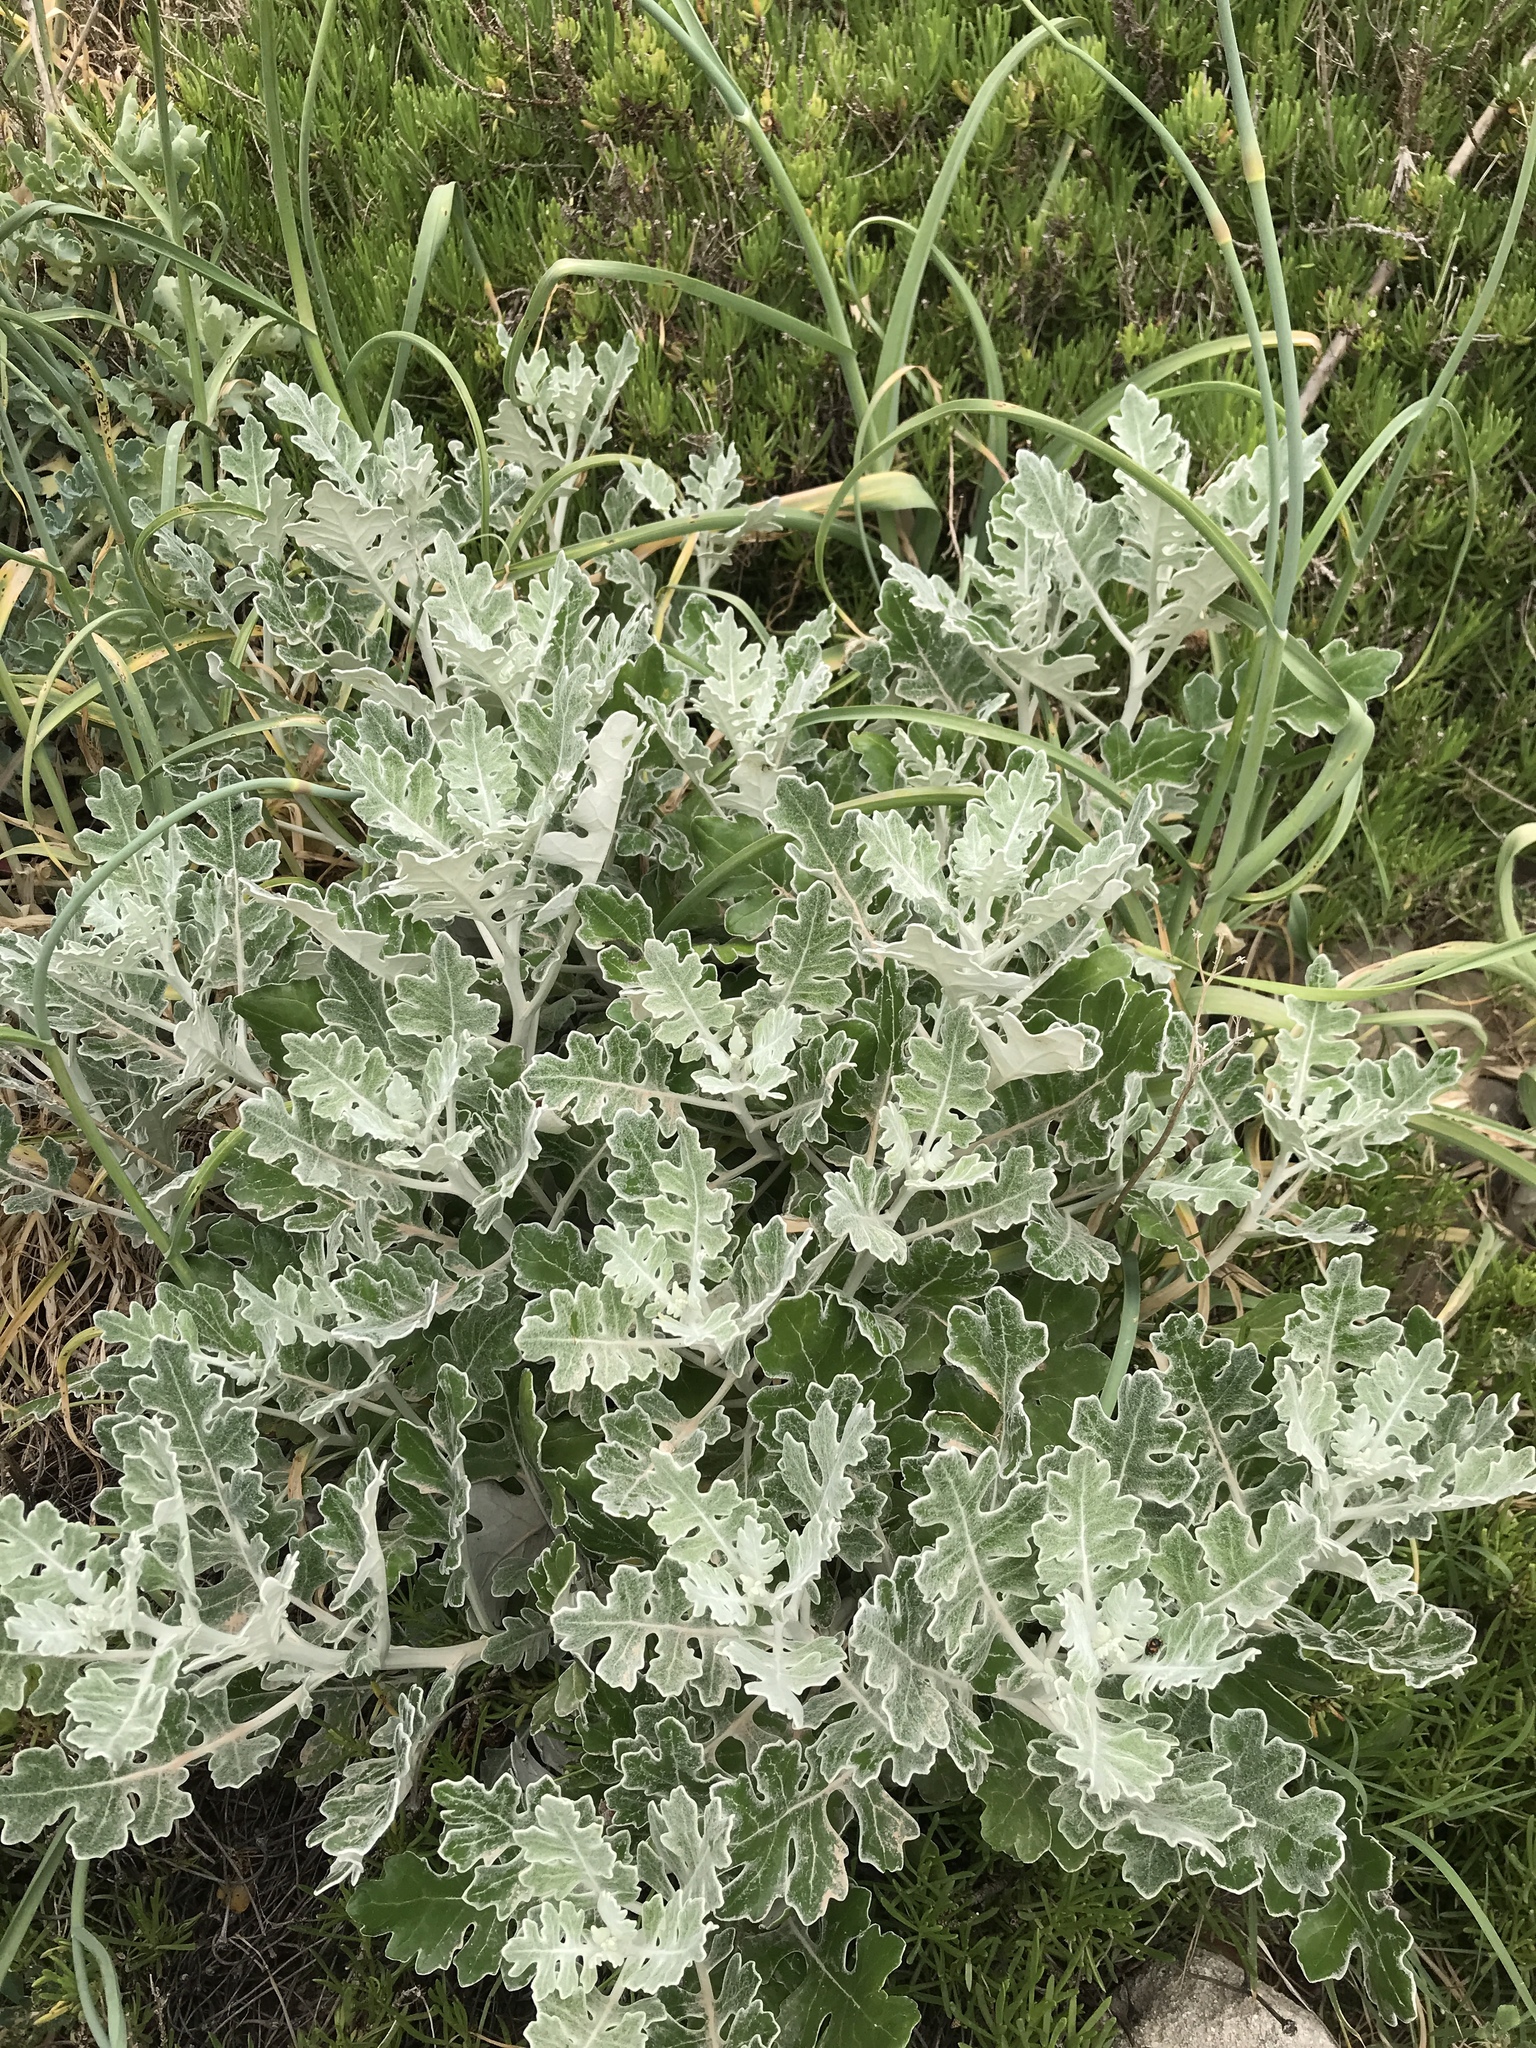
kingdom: Plantae
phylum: Tracheophyta
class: Magnoliopsida
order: Asterales
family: Asteraceae
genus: Jacobaea
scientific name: Jacobaea maritima
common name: Silver ragwort
